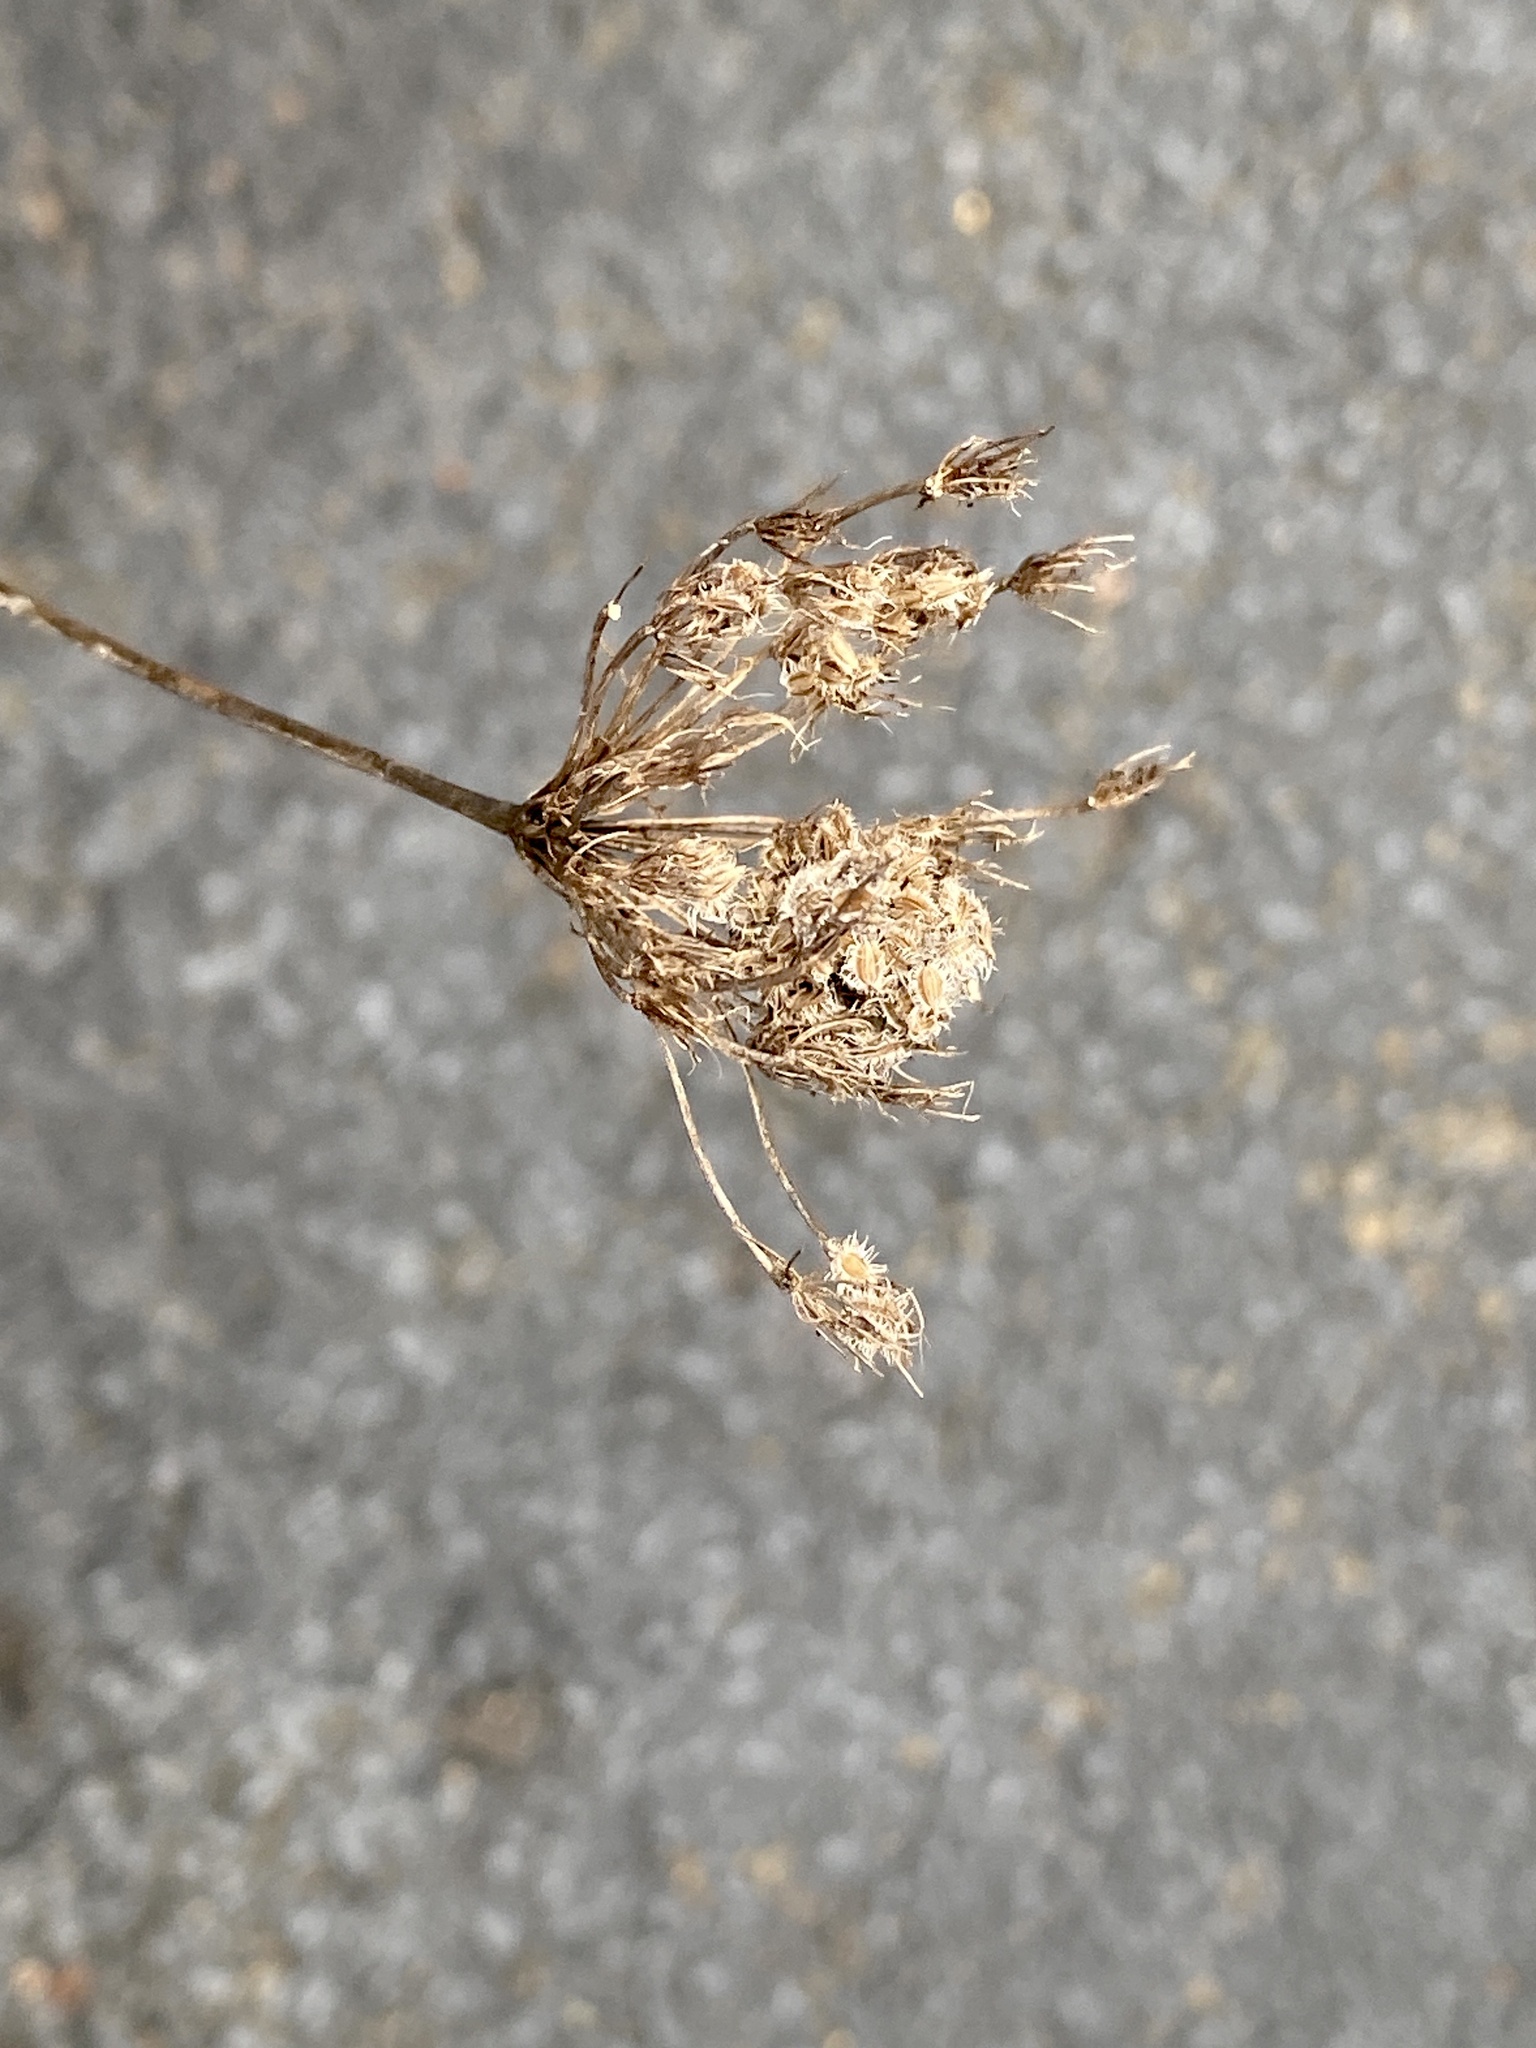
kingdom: Plantae
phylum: Tracheophyta
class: Magnoliopsida
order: Apiales
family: Apiaceae
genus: Daucus
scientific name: Daucus carota
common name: Wild carrot
